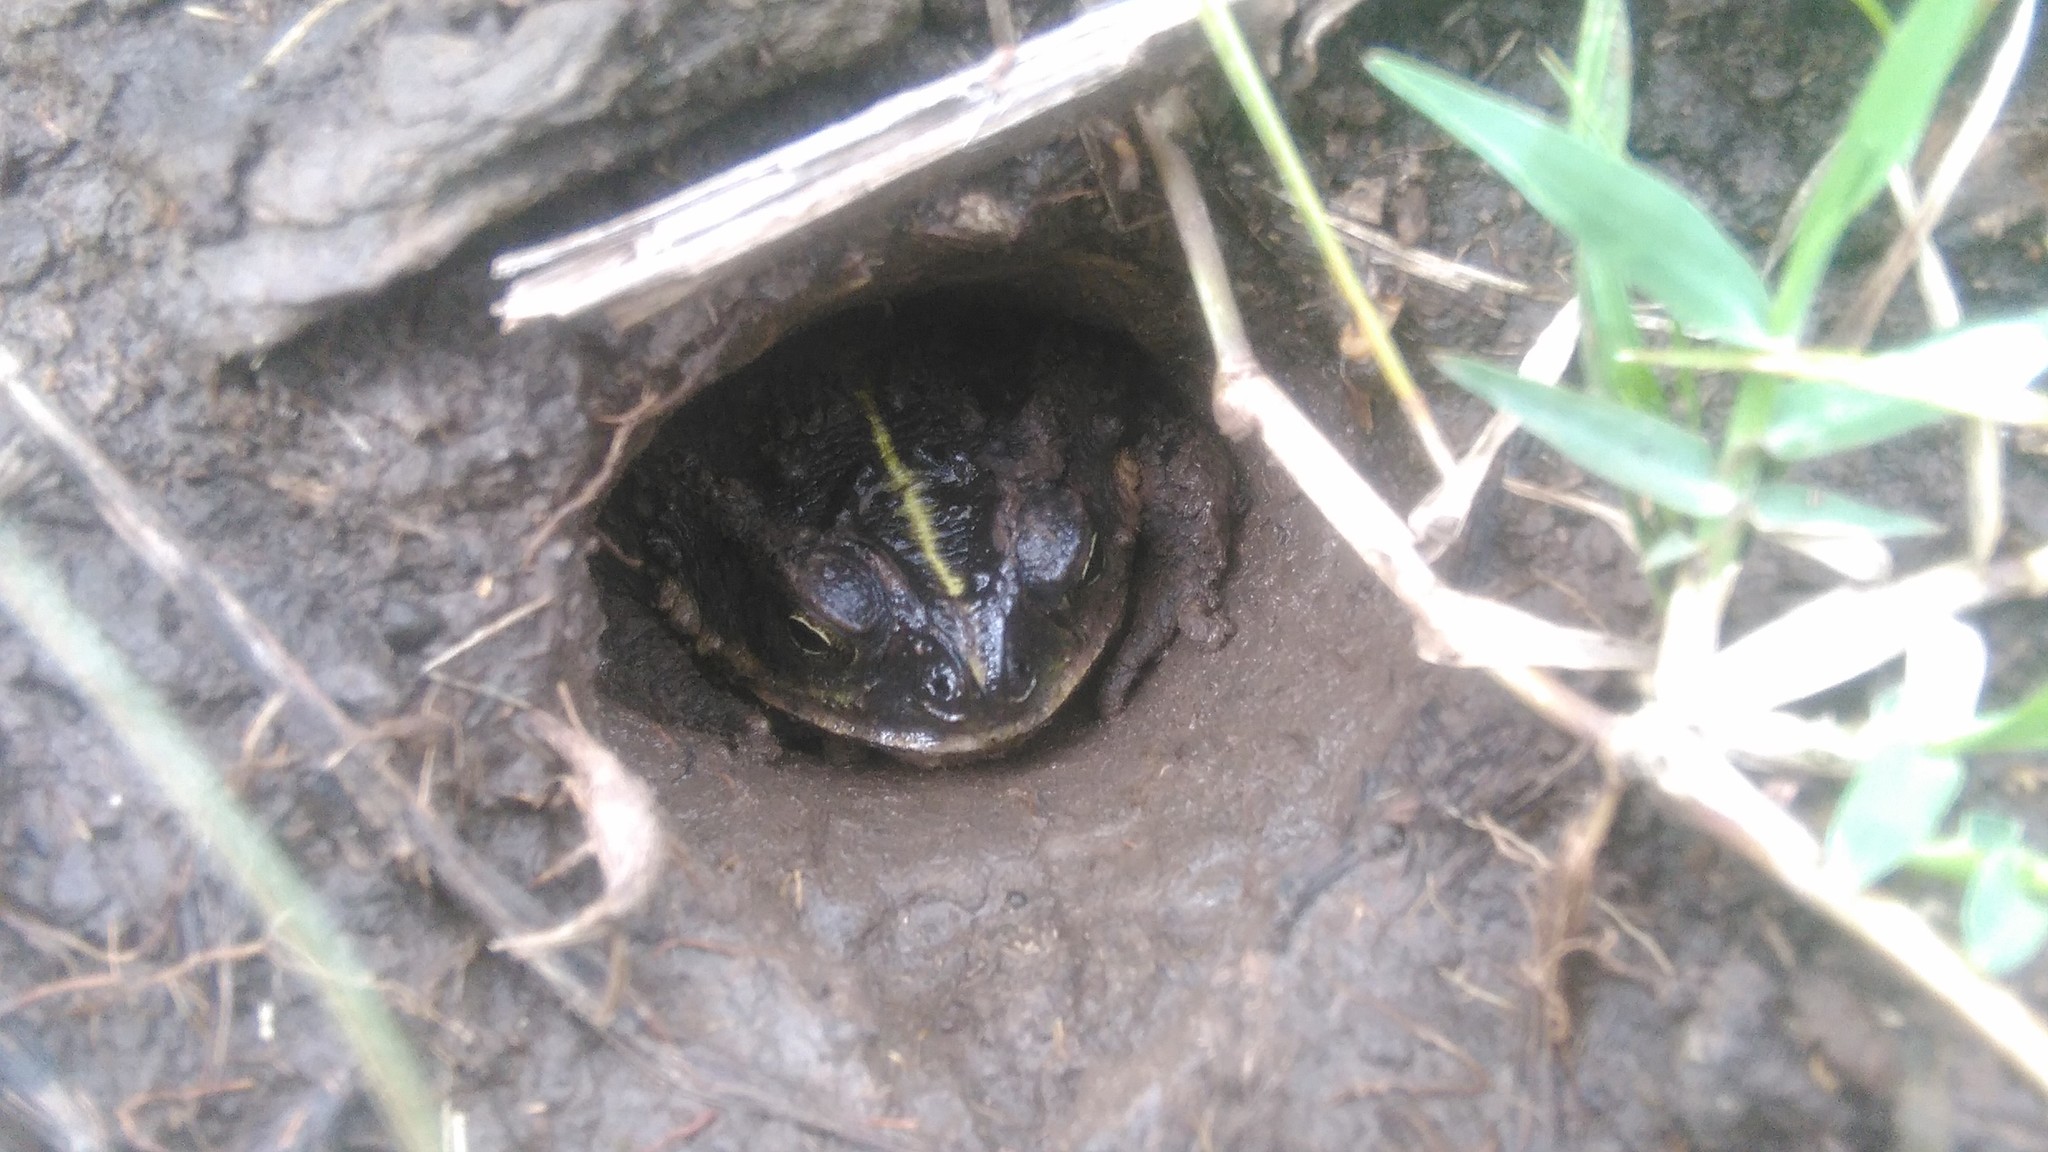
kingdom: Animalia
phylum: Chordata
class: Amphibia
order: Anura
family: Bufonidae
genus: Rhinella
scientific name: Rhinella dorbignyi
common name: D´orbigny’s toad
